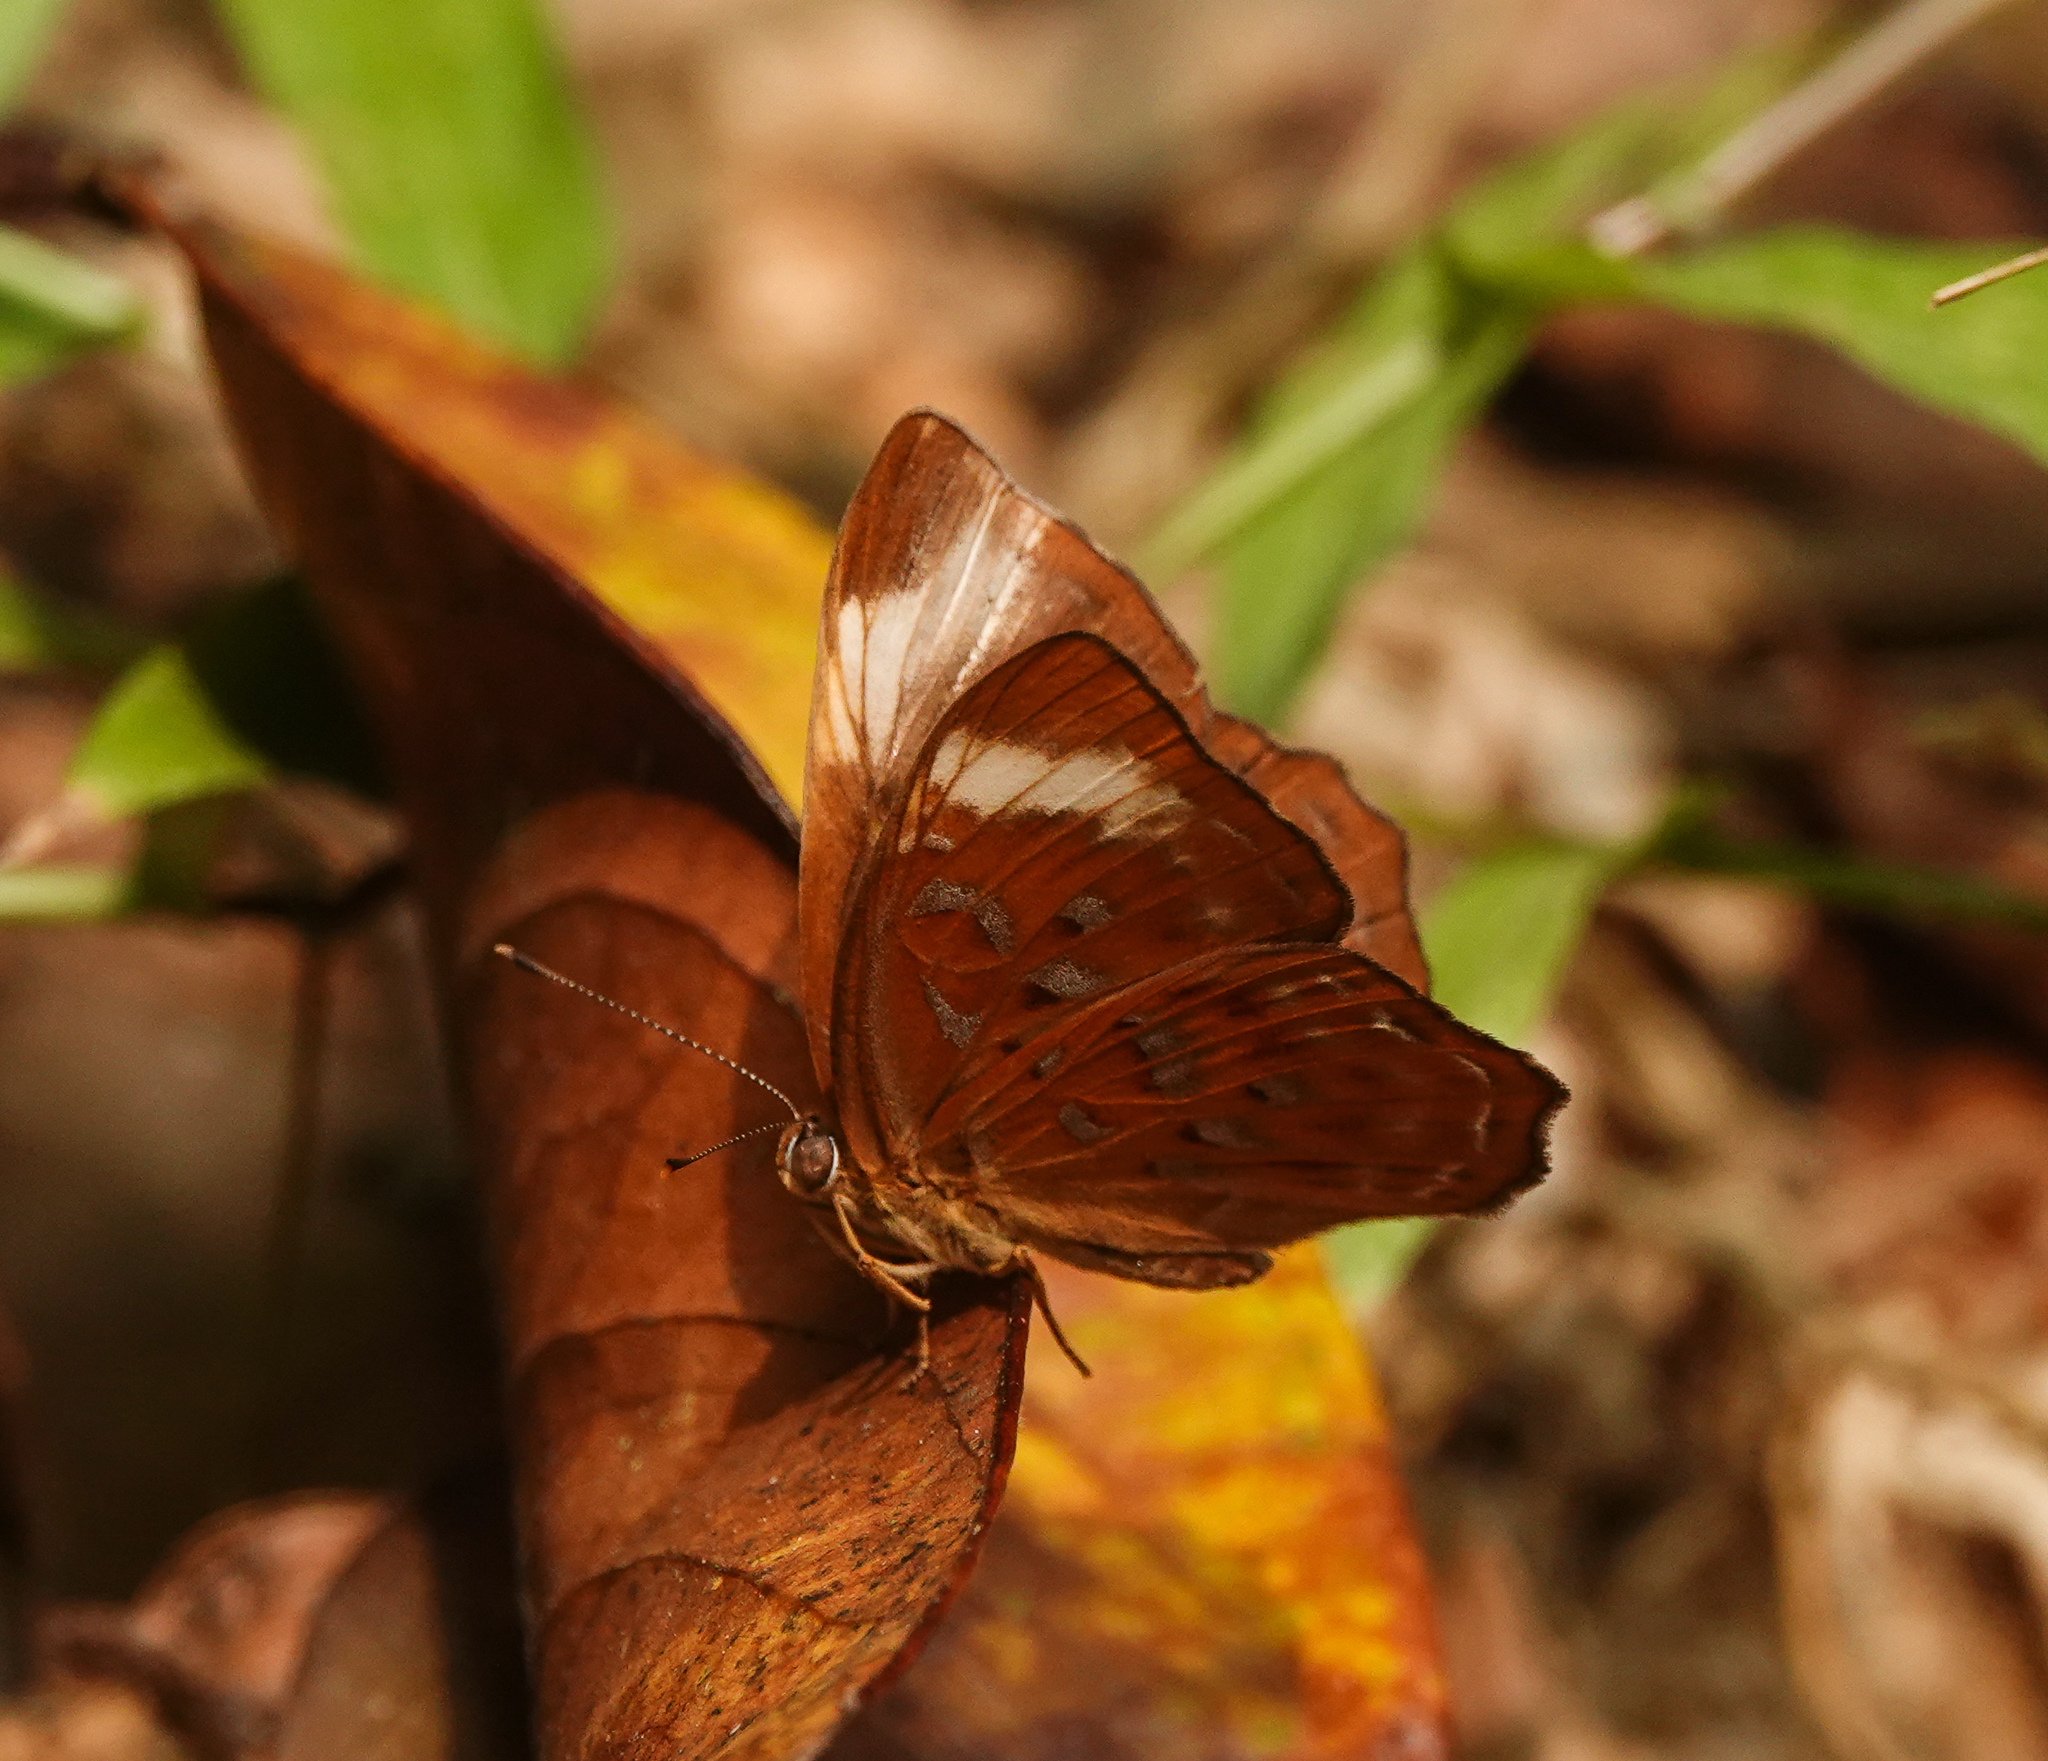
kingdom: Animalia
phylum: Arthropoda
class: Insecta
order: Lepidoptera
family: Erebidae
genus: Dysschema
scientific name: Dysschema
